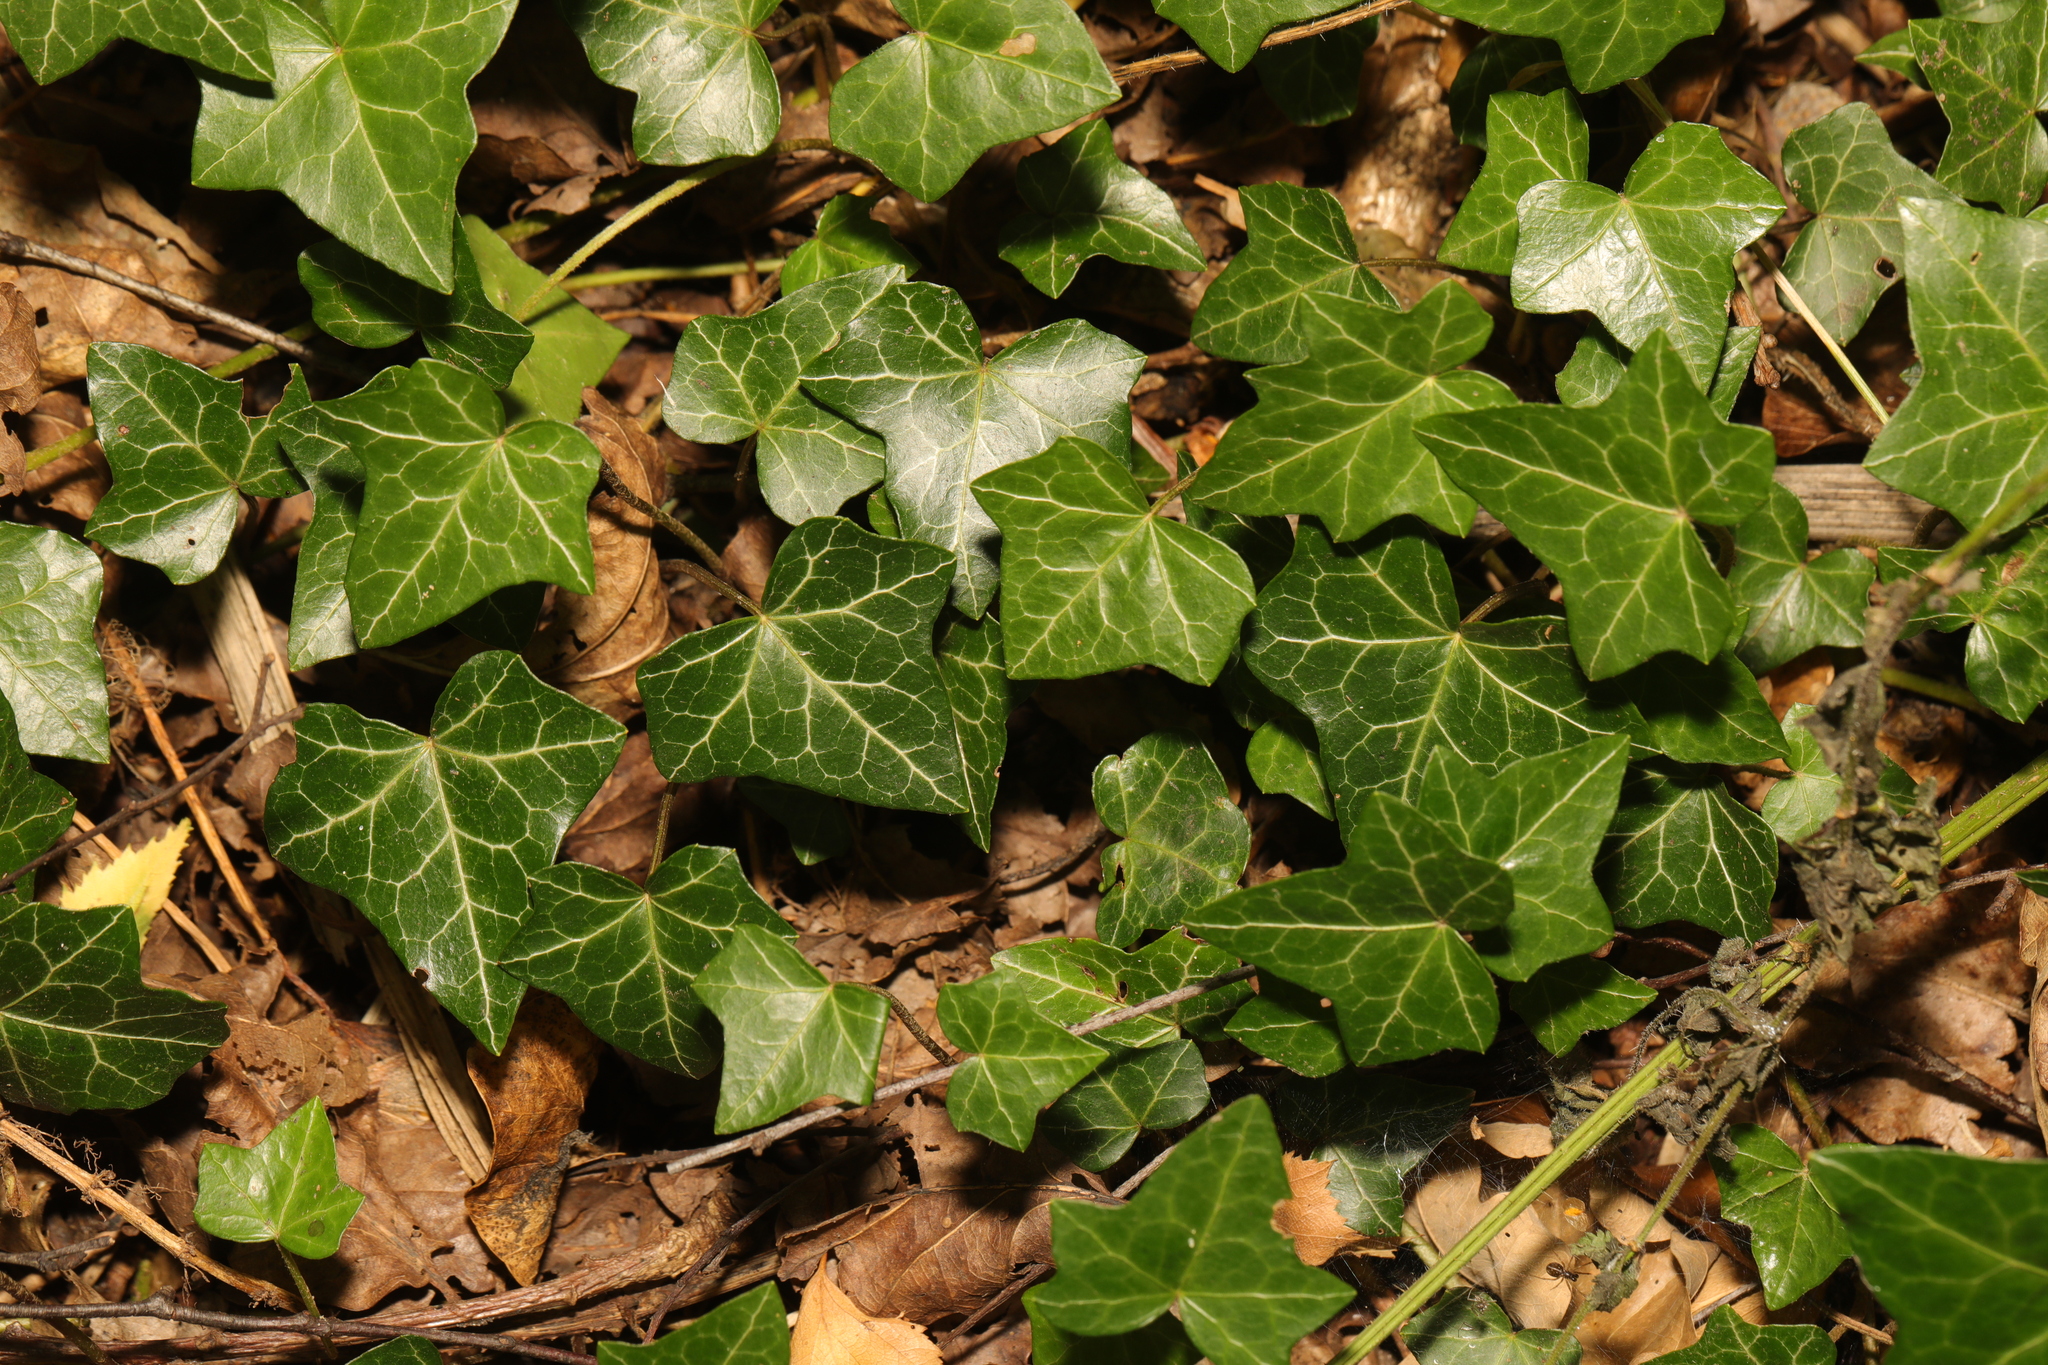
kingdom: Plantae
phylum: Tracheophyta
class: Magnoliopsida
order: Apiales
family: Araliaceae
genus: Hedera
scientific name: Hedera helix
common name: Ivy
